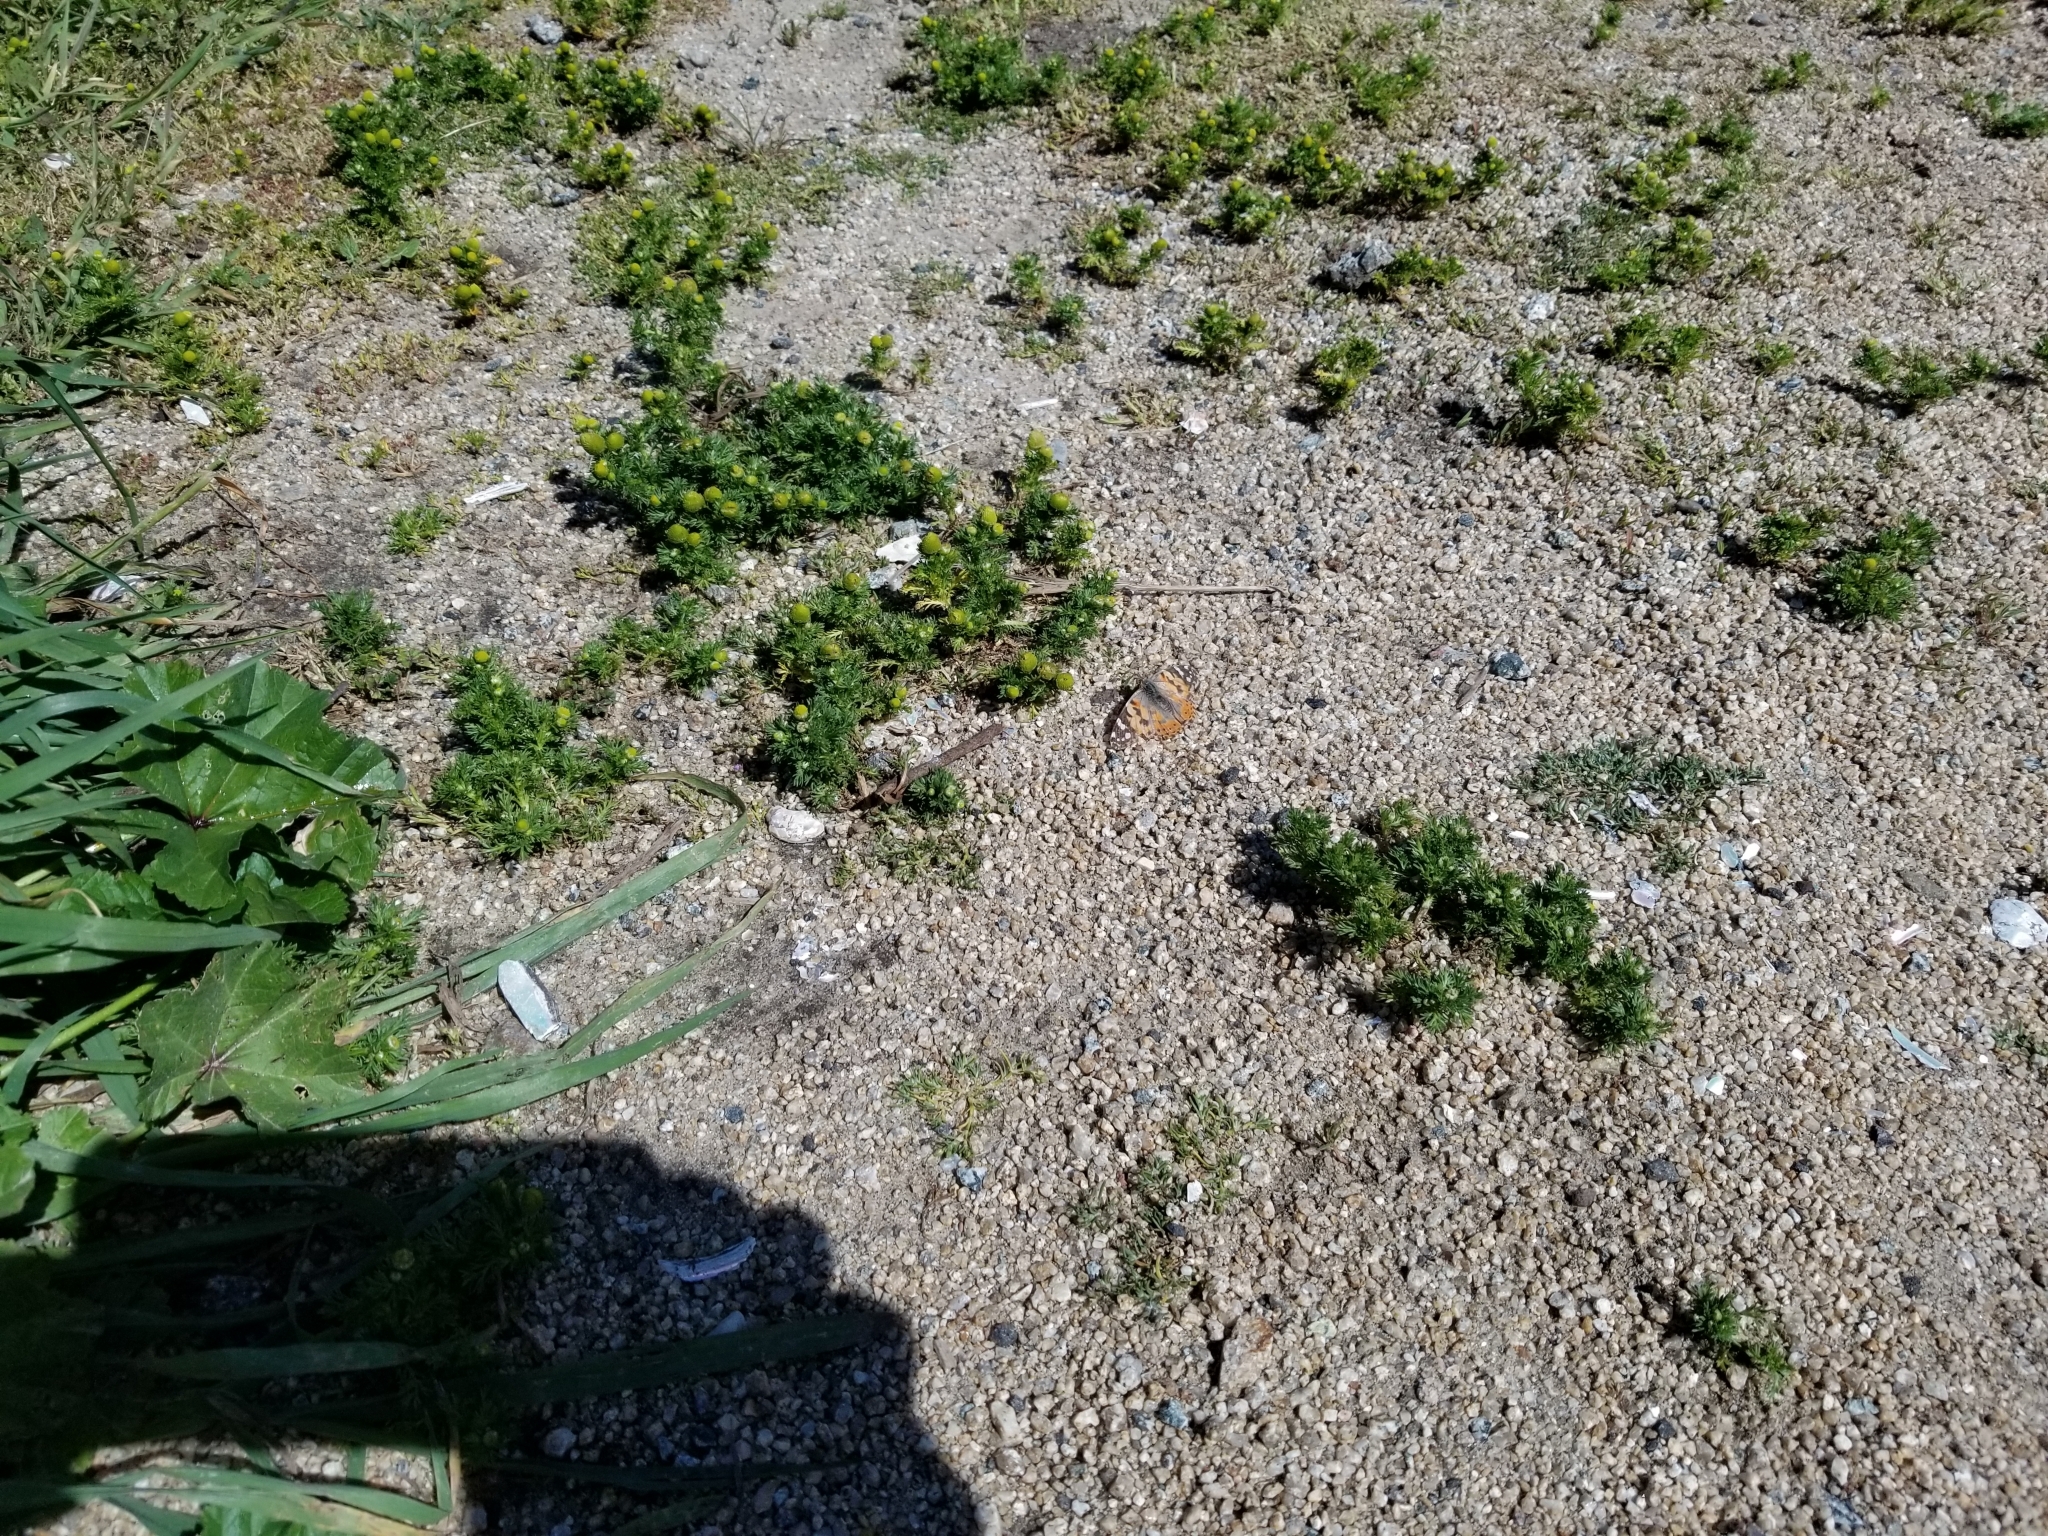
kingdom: Animalia
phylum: Arthropoda
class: Insecta
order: Lepidoptera
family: Nymphalidae
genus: Vanessa
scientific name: Vanessa cardui
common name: Painted lady
